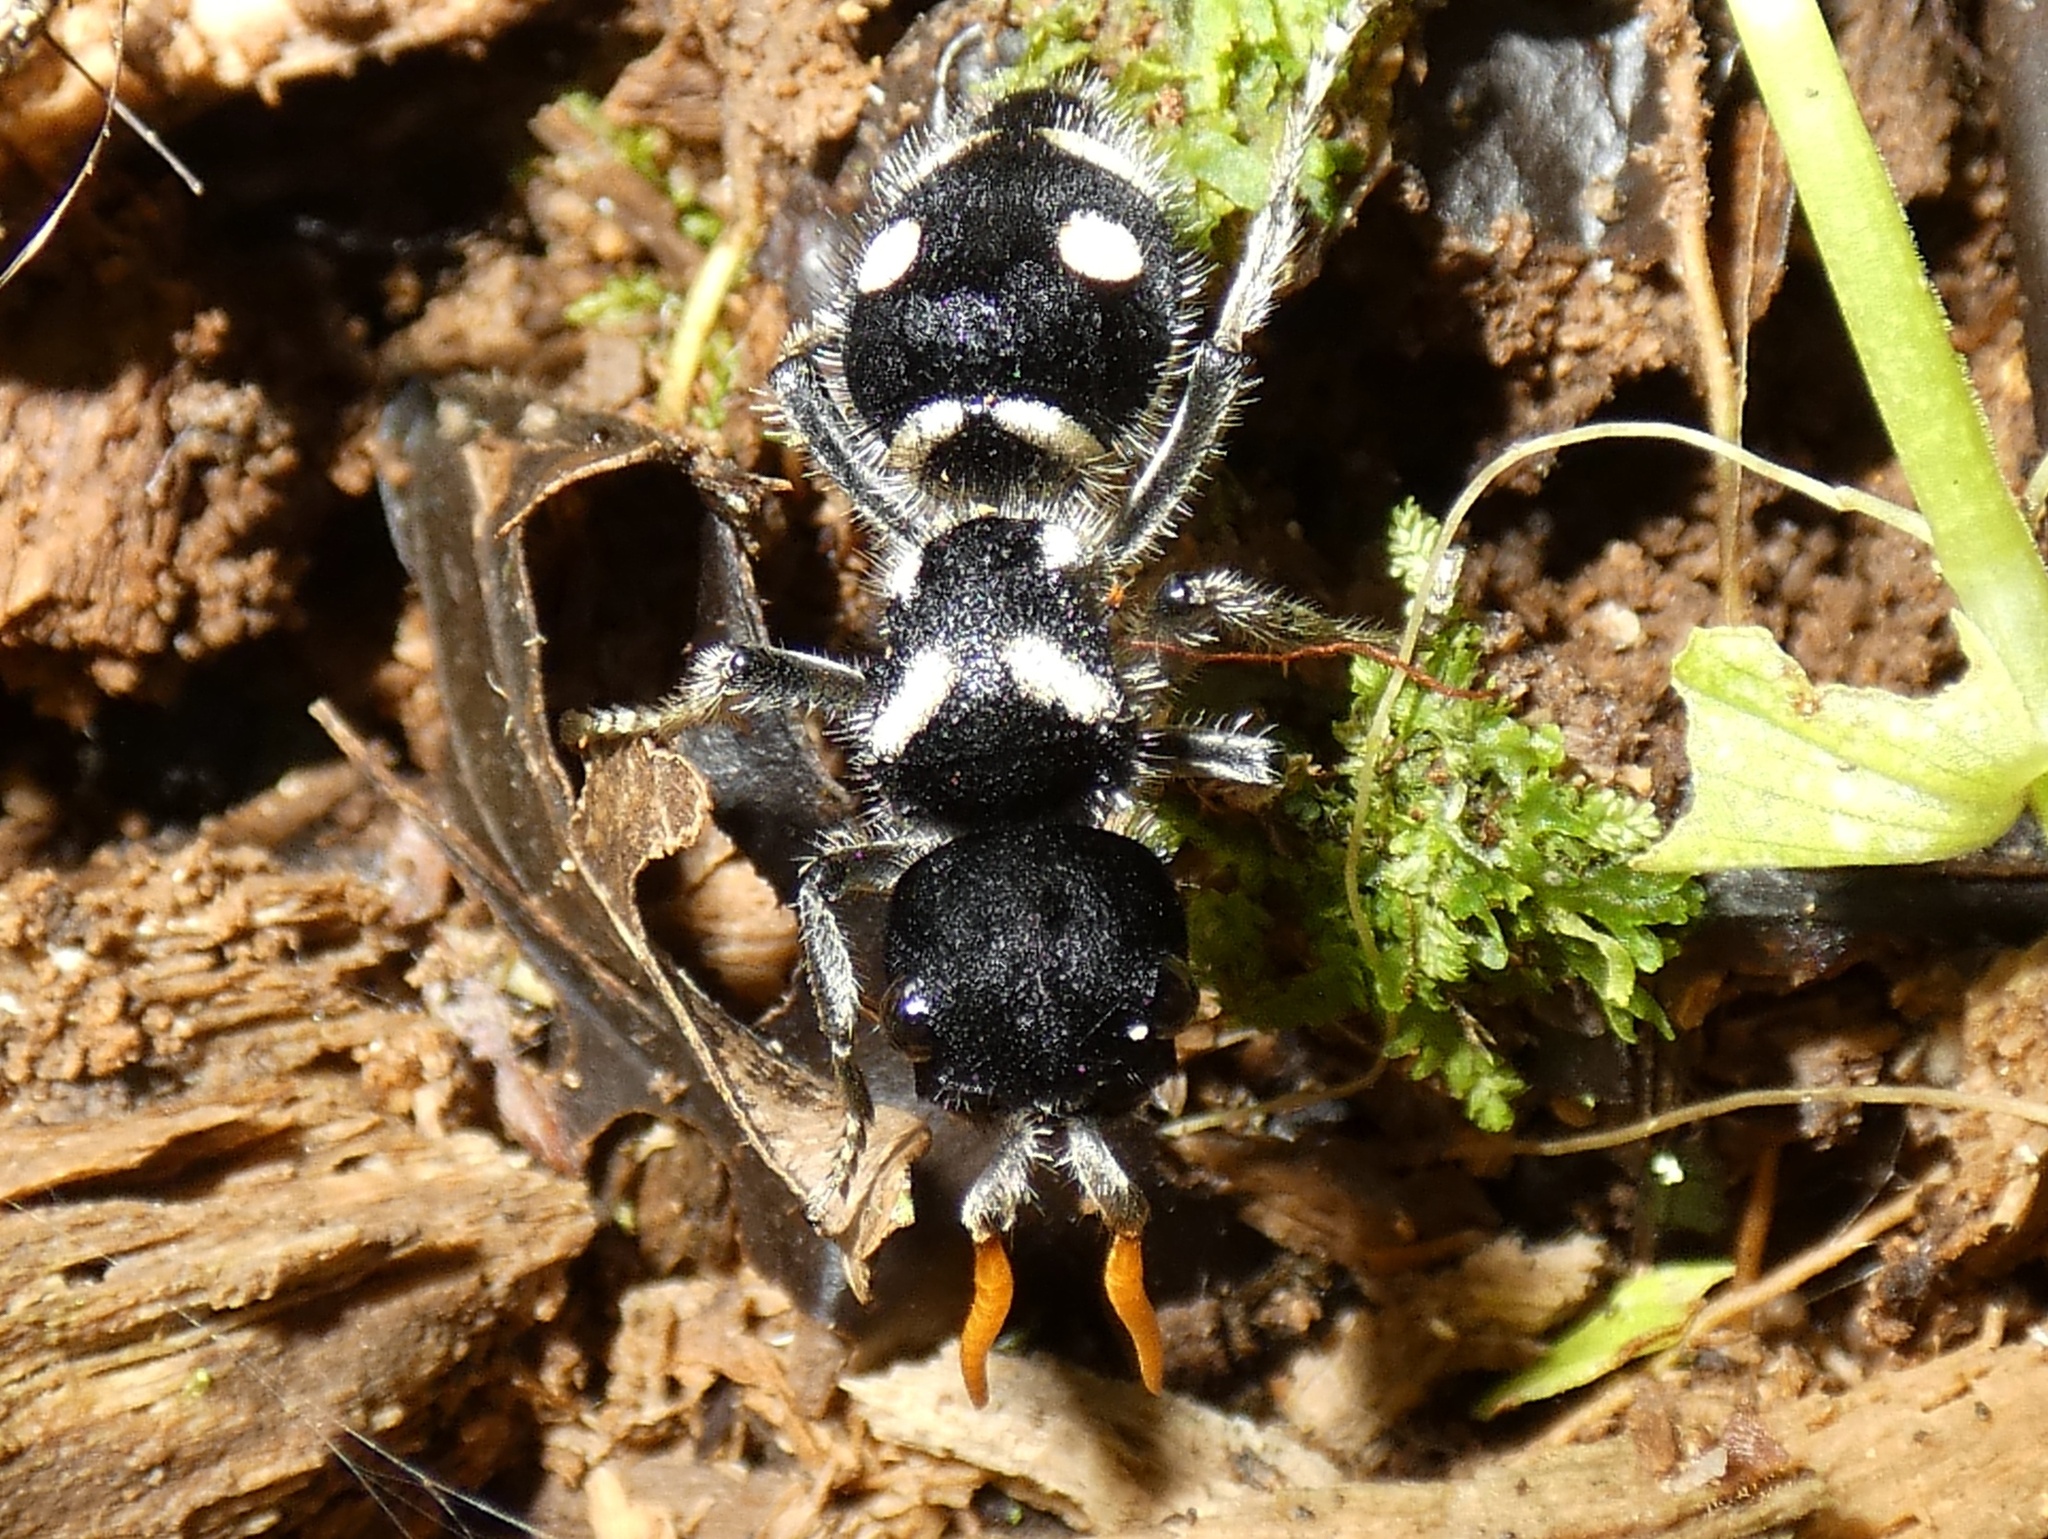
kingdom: Animalia
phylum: Arthropoda
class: Insecta
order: Hymenoptera
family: Mutillidae
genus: Hoplomutilla
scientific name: Hoplomutilla
